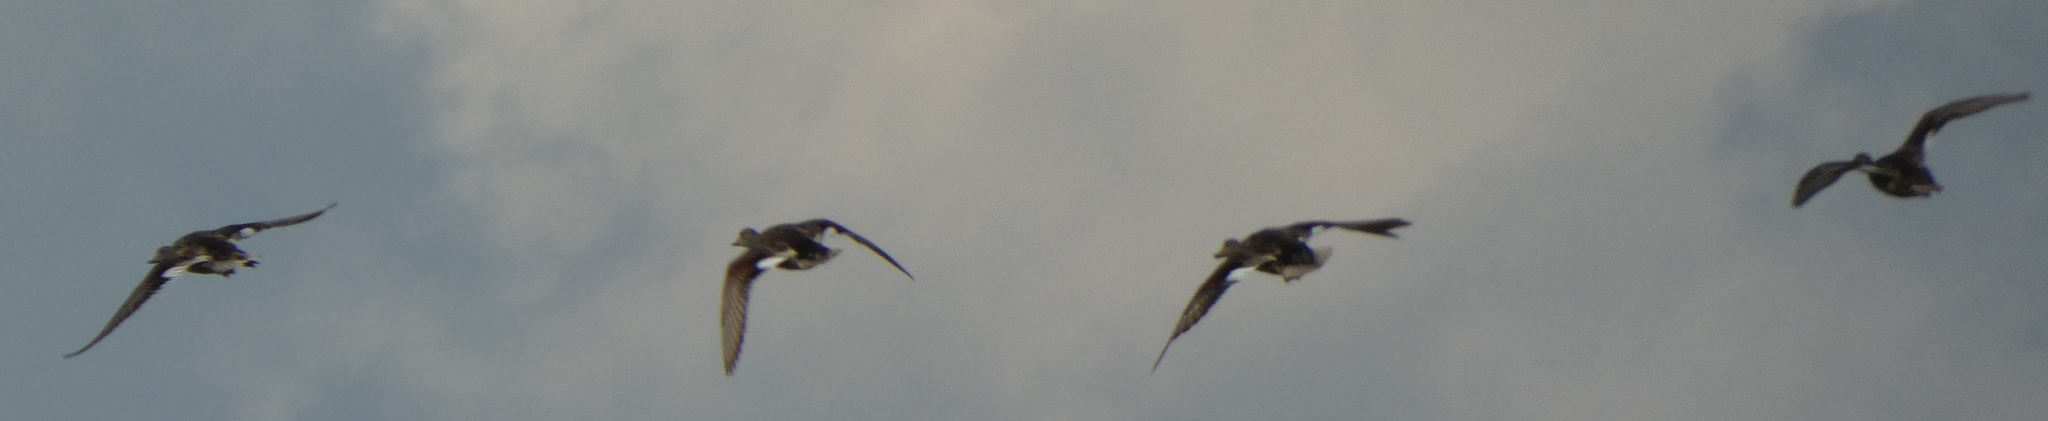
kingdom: Animalia
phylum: Chordata
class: Aves
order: Anseriformes
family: Anatidae
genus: Mareca
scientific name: Mareca strepera
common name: Gadwall
